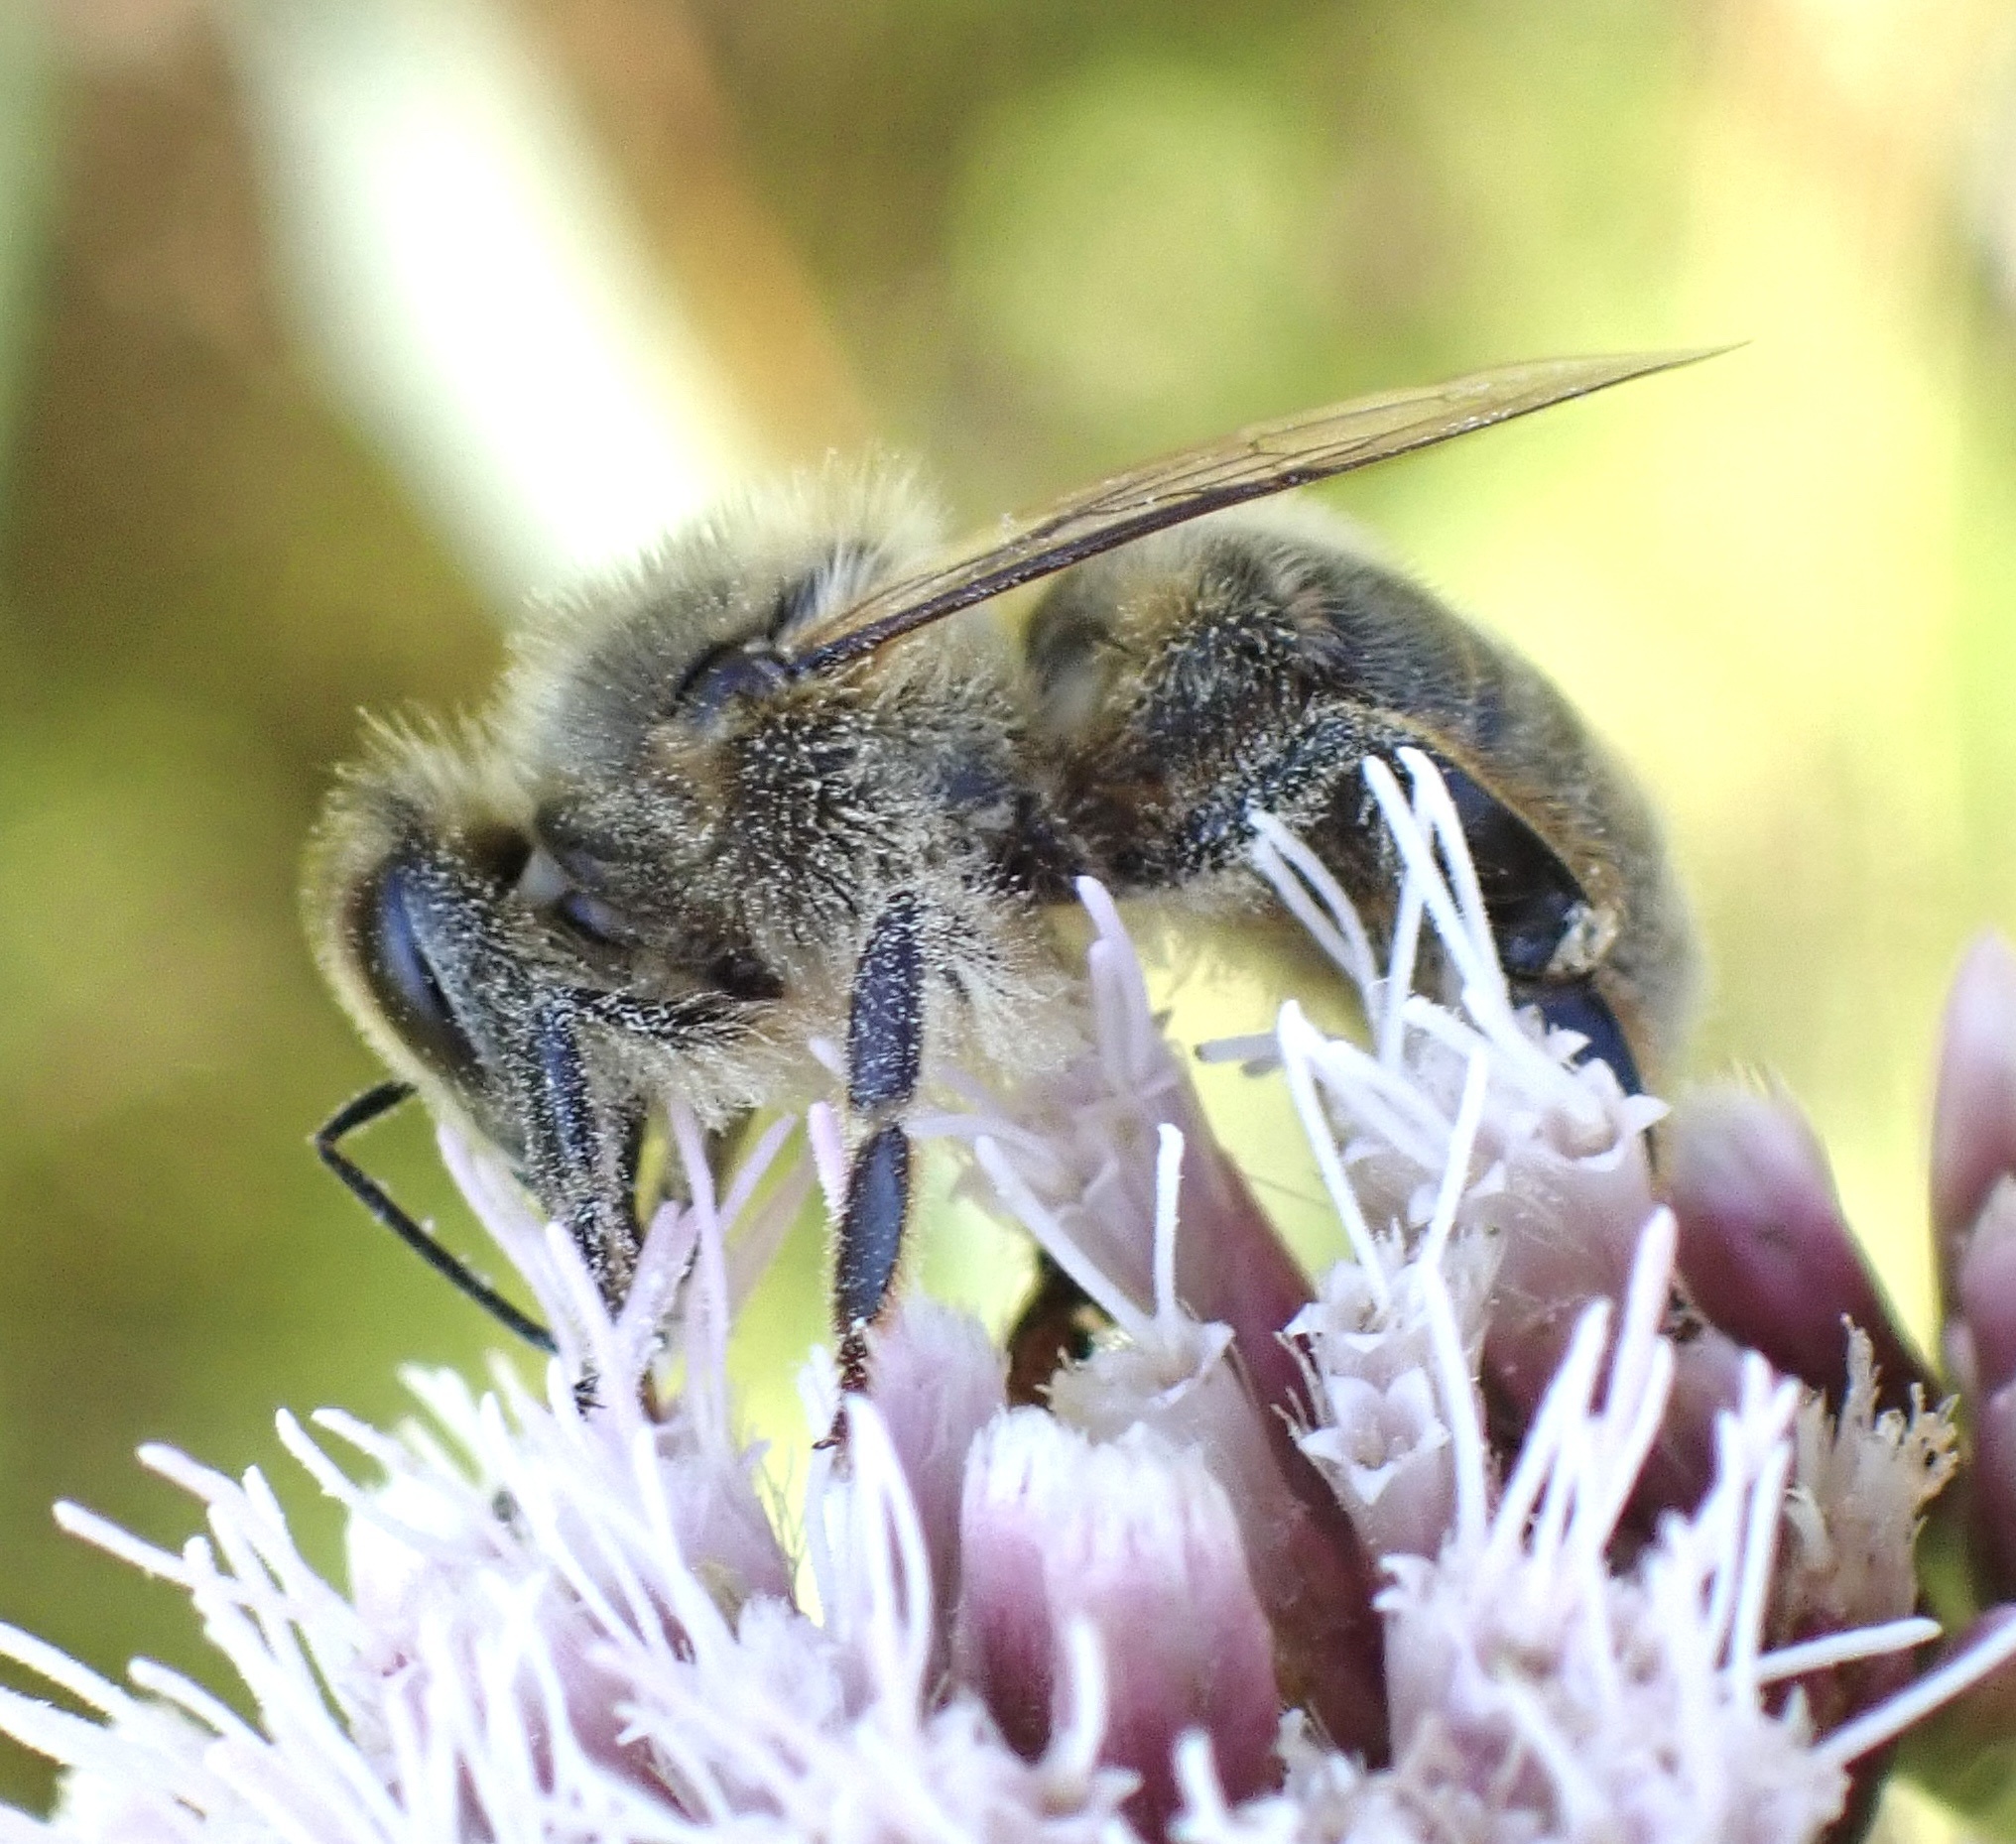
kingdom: Animalia
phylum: Arthropoda
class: Insecta
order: Hymenoptera
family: Apidae
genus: Apis
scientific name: Apis mellifera
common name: Honey bee
